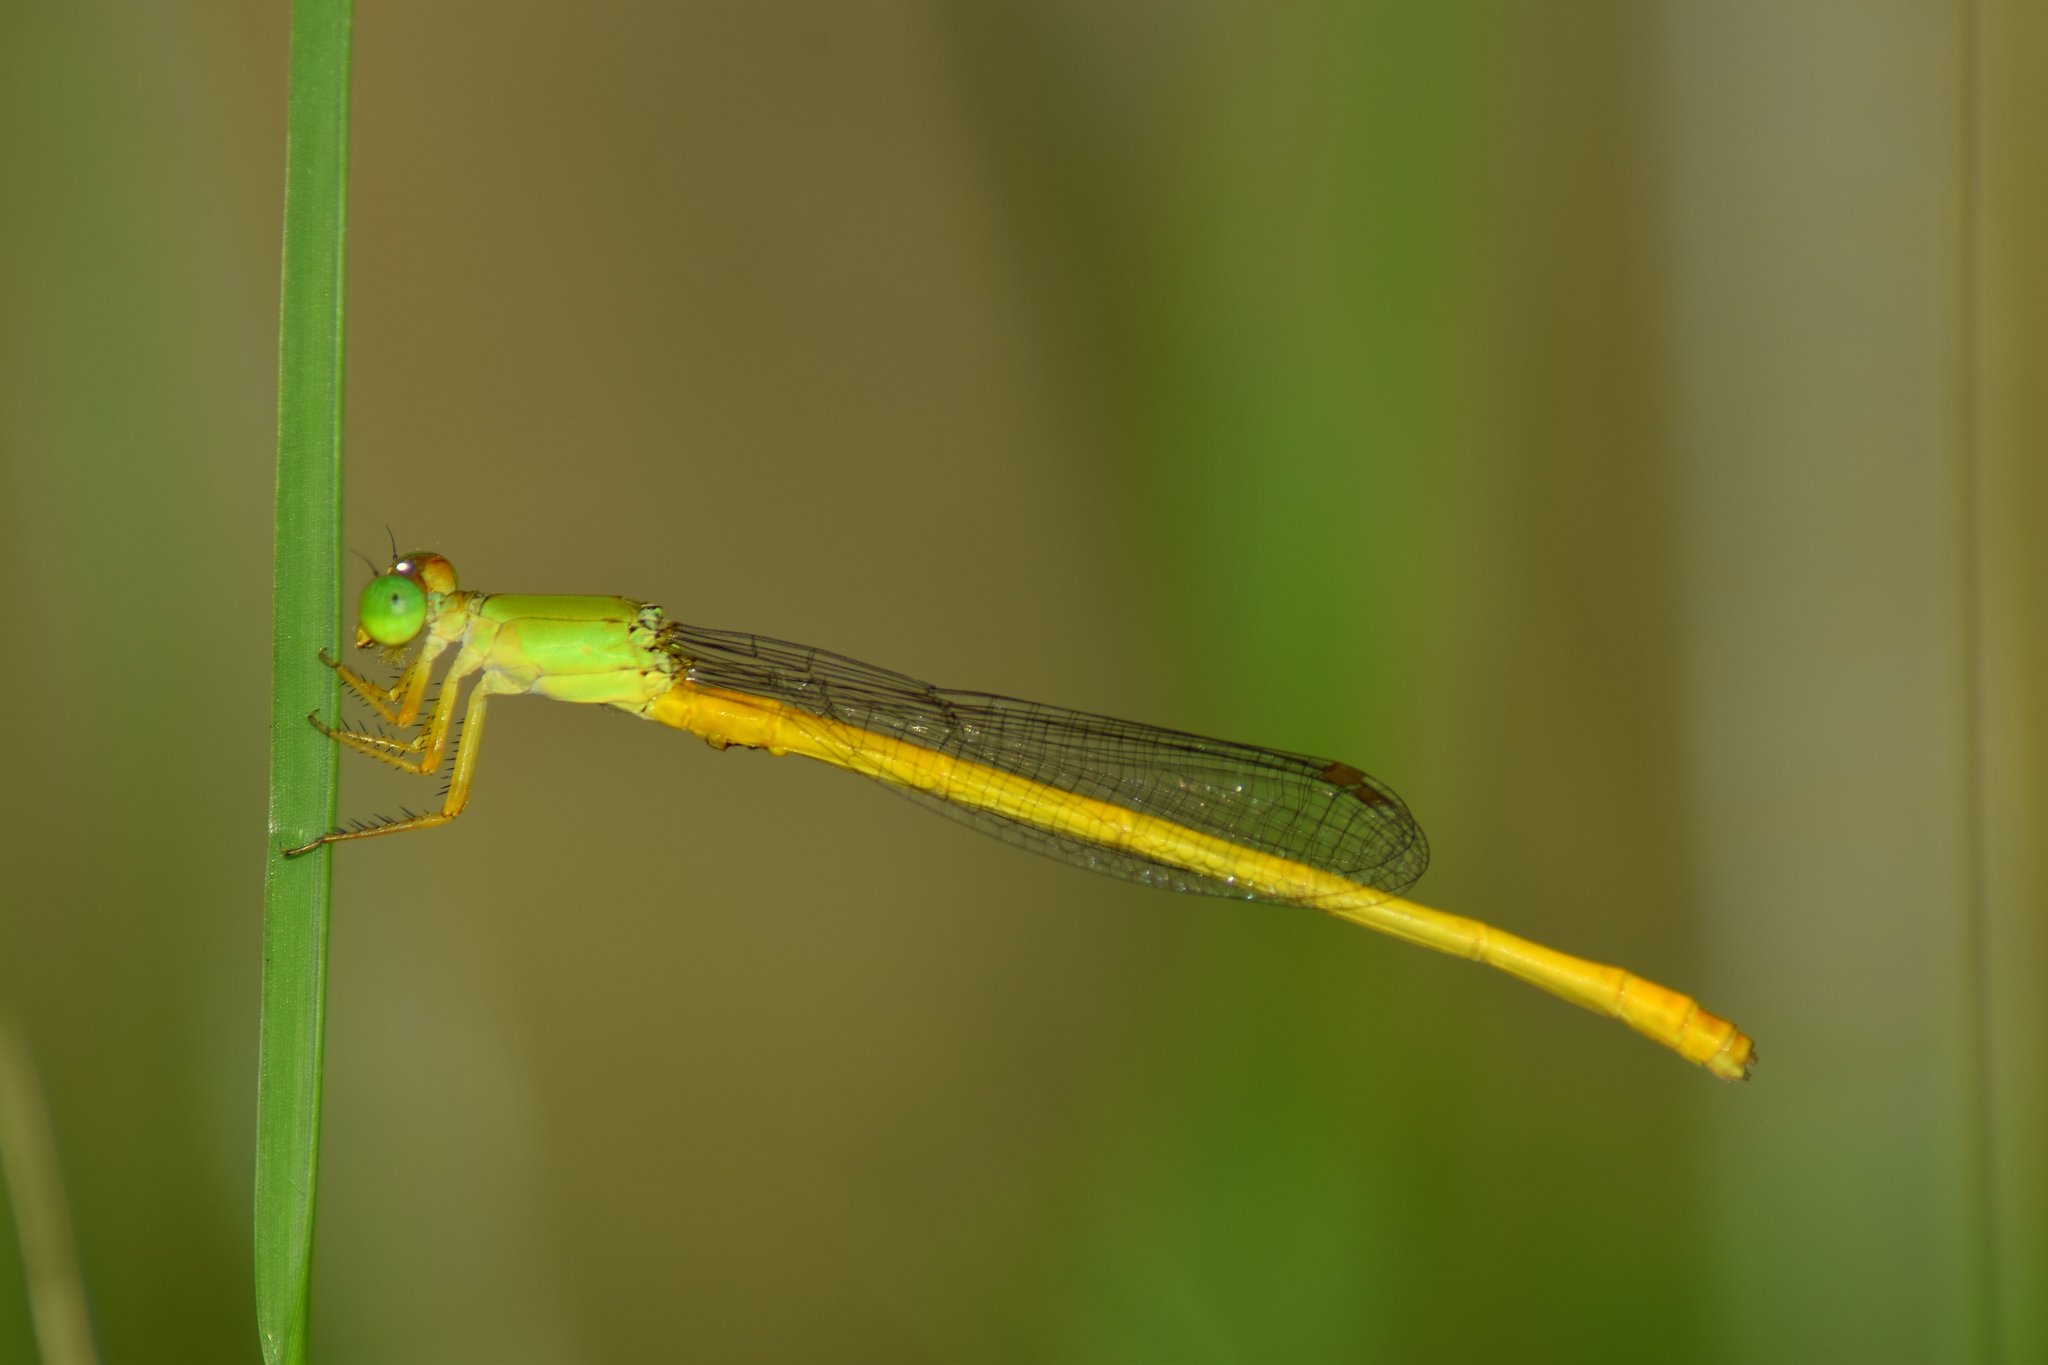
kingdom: Animalia
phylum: Arthropoda
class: Insecta
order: Odonata
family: Coenagrionidae
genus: Ceriagrion
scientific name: Ceriagrion coromandelianum
